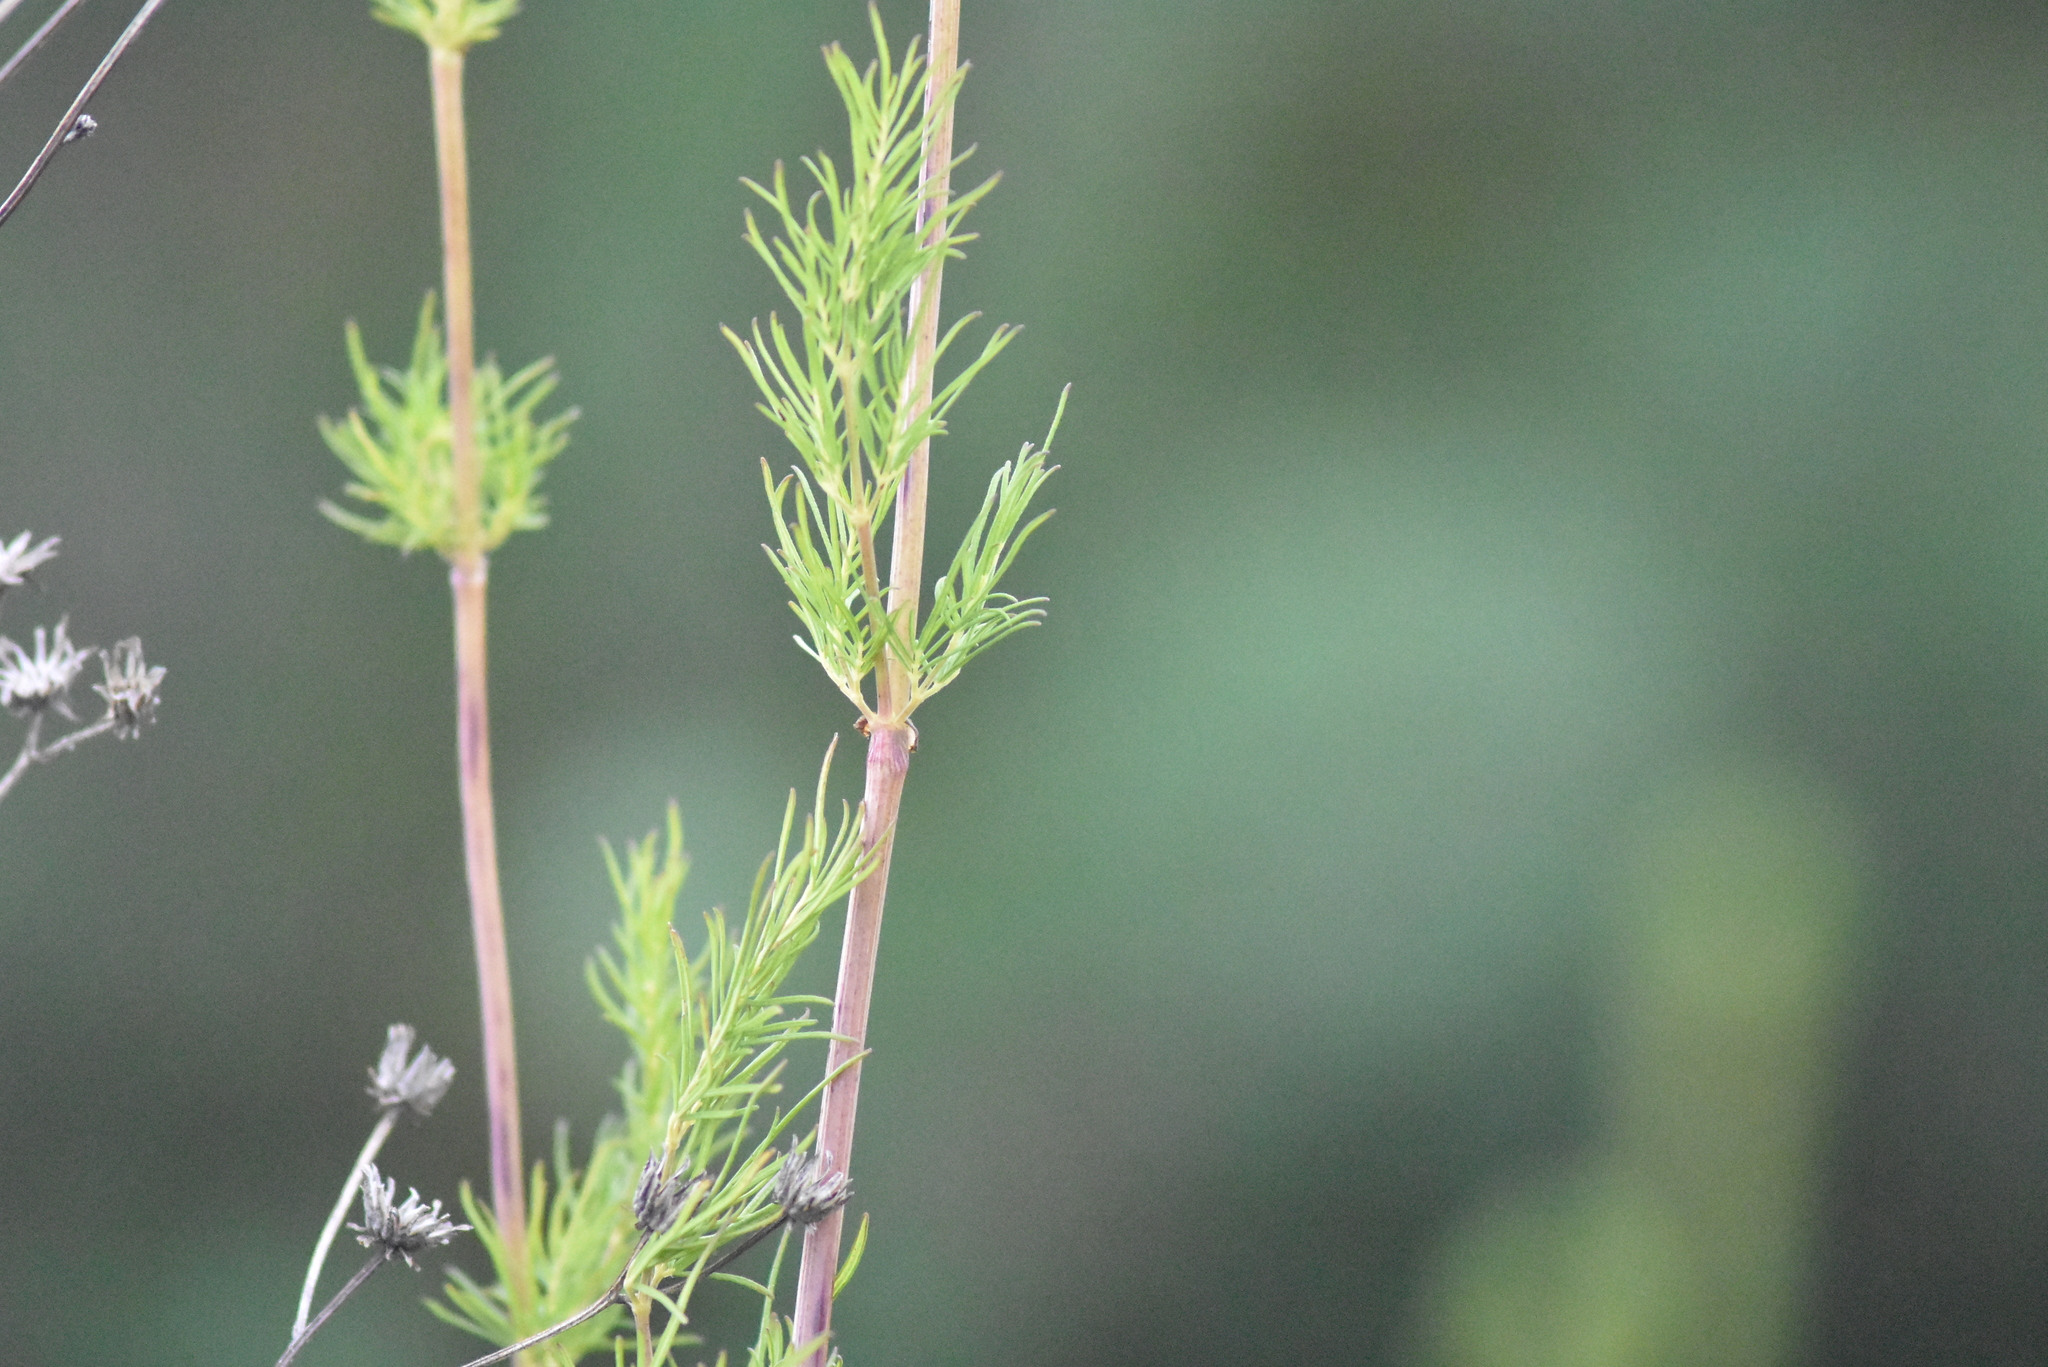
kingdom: Plantae
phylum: Tracheophyta
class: Magnoliopsida
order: Ranunculales
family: Ranunculaceae
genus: Thalictrum
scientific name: Thalictrum lucidum
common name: Shining meadow-rue
